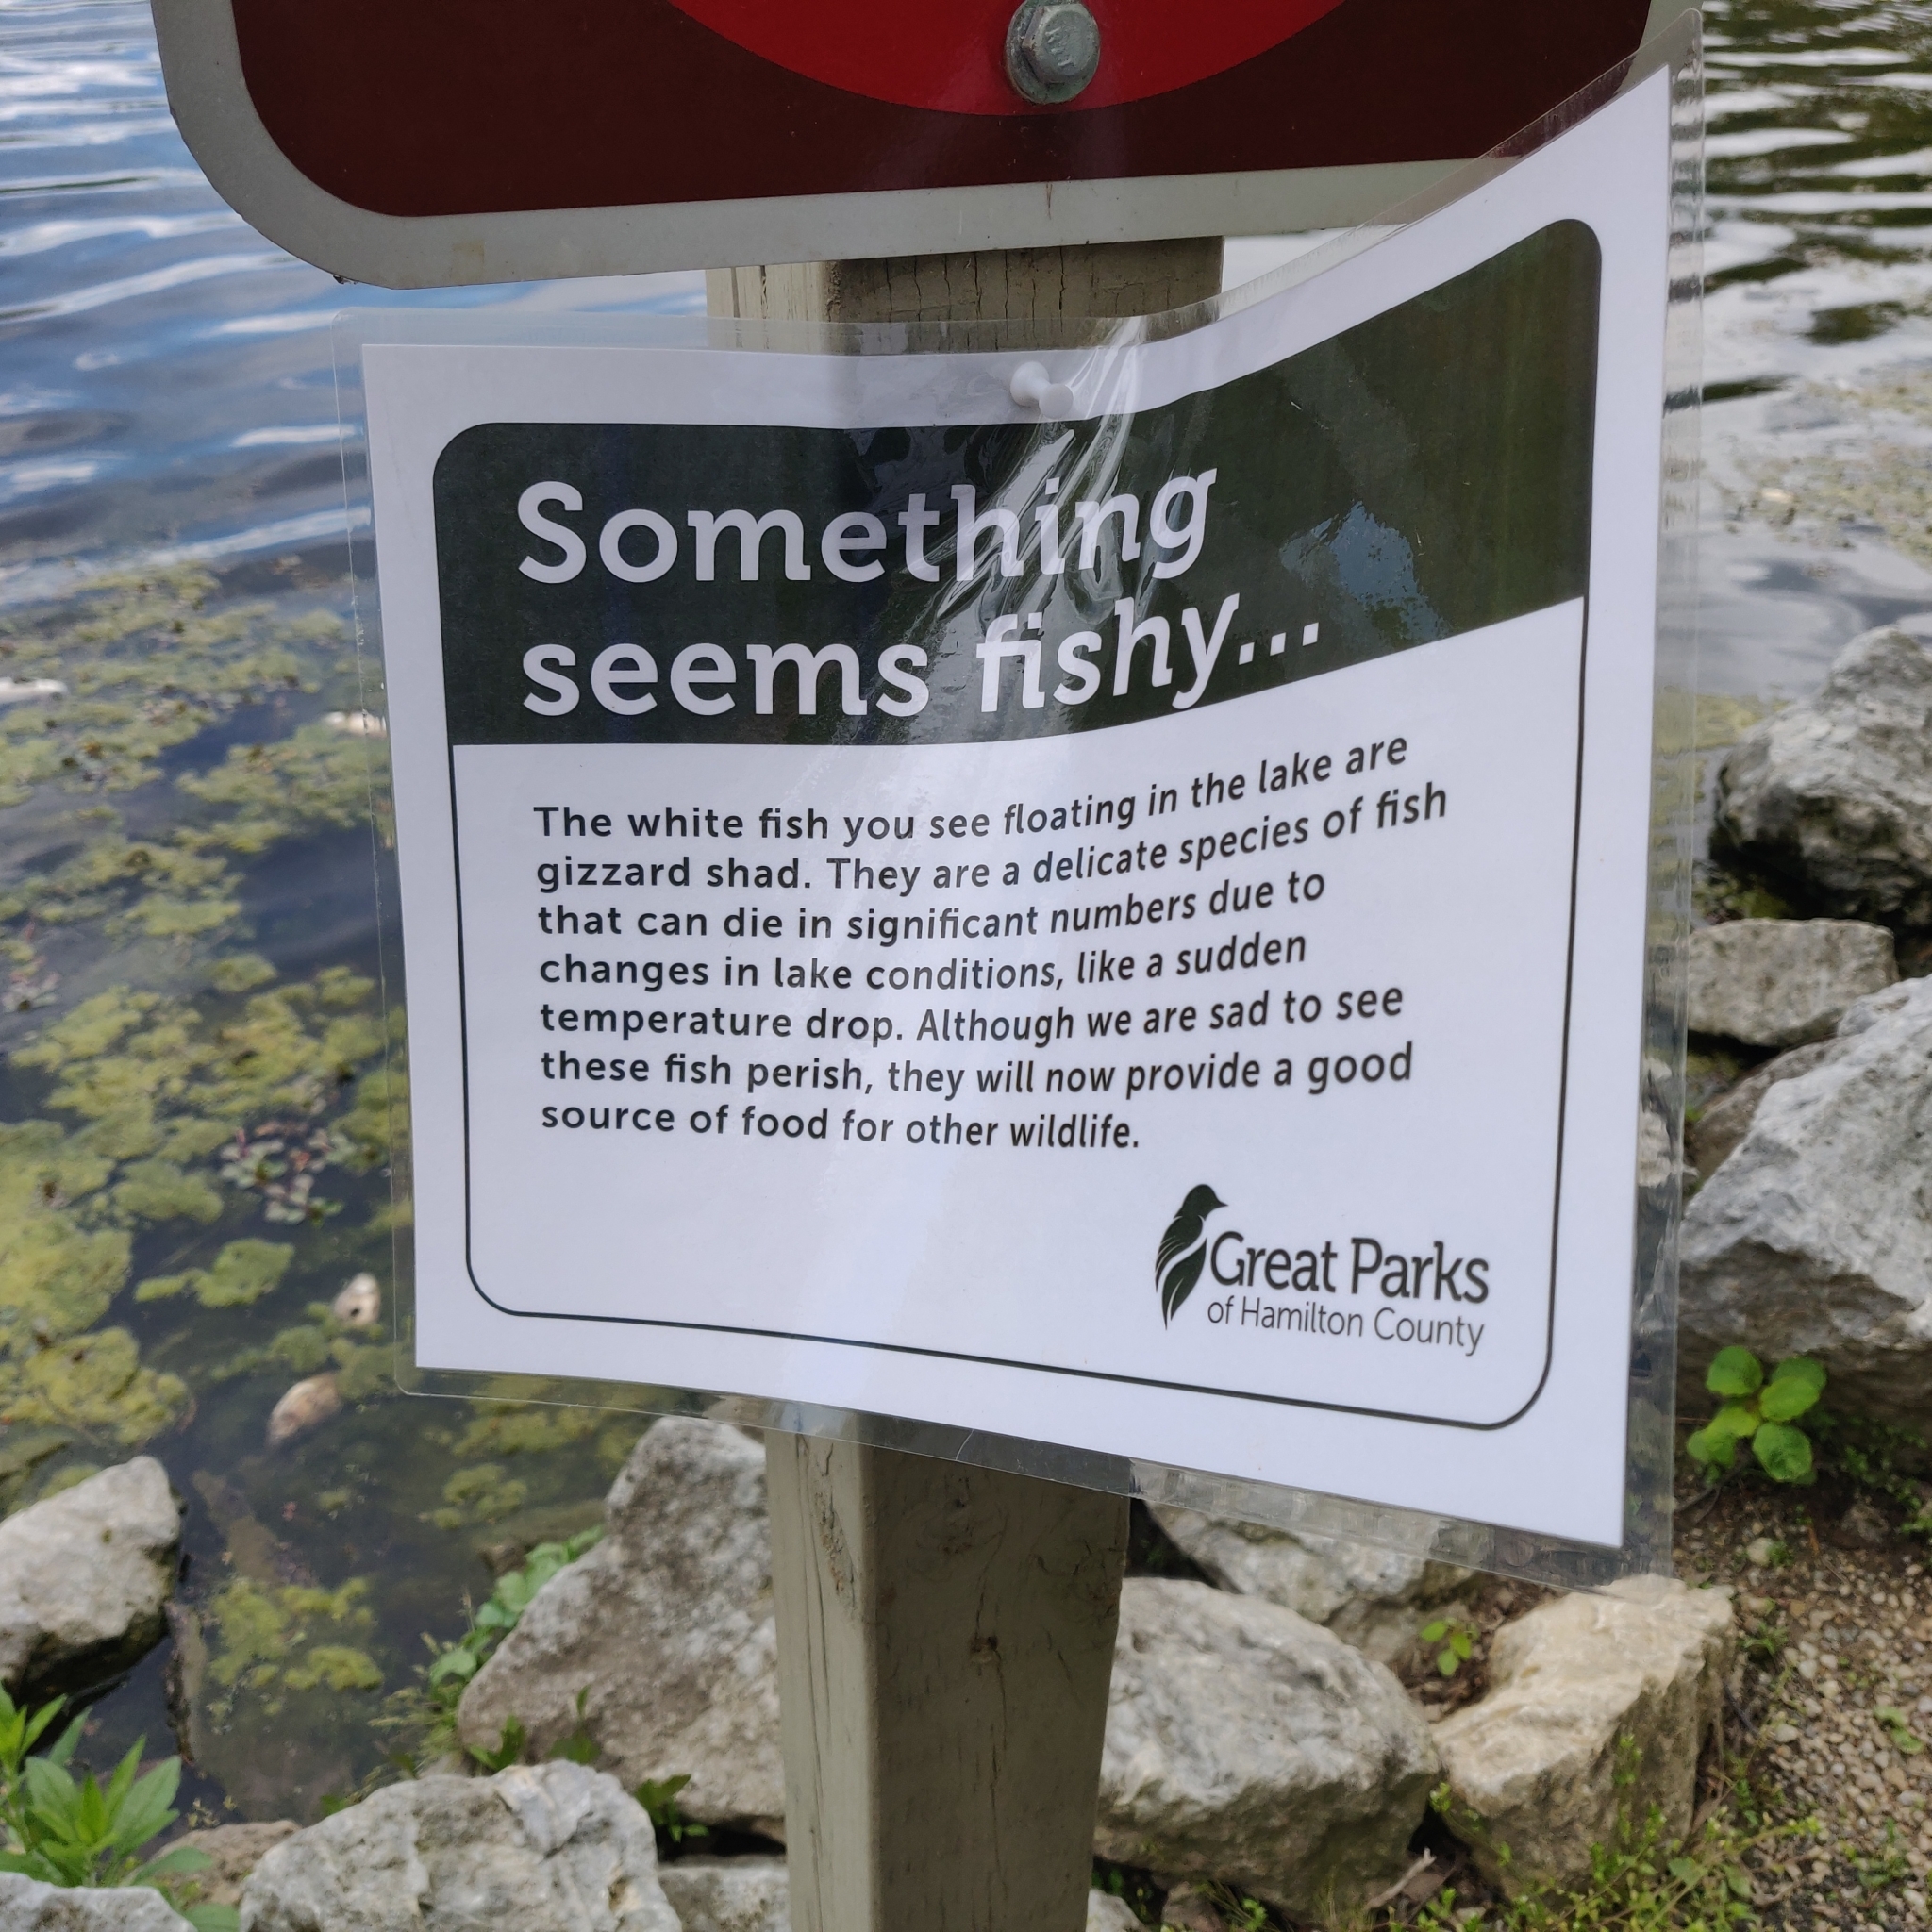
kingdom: Animalia
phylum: Chordata
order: Clupeiformes
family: Clupeidae
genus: Dorosoma
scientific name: Dorosoma cepedianum
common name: Gizzard shad
